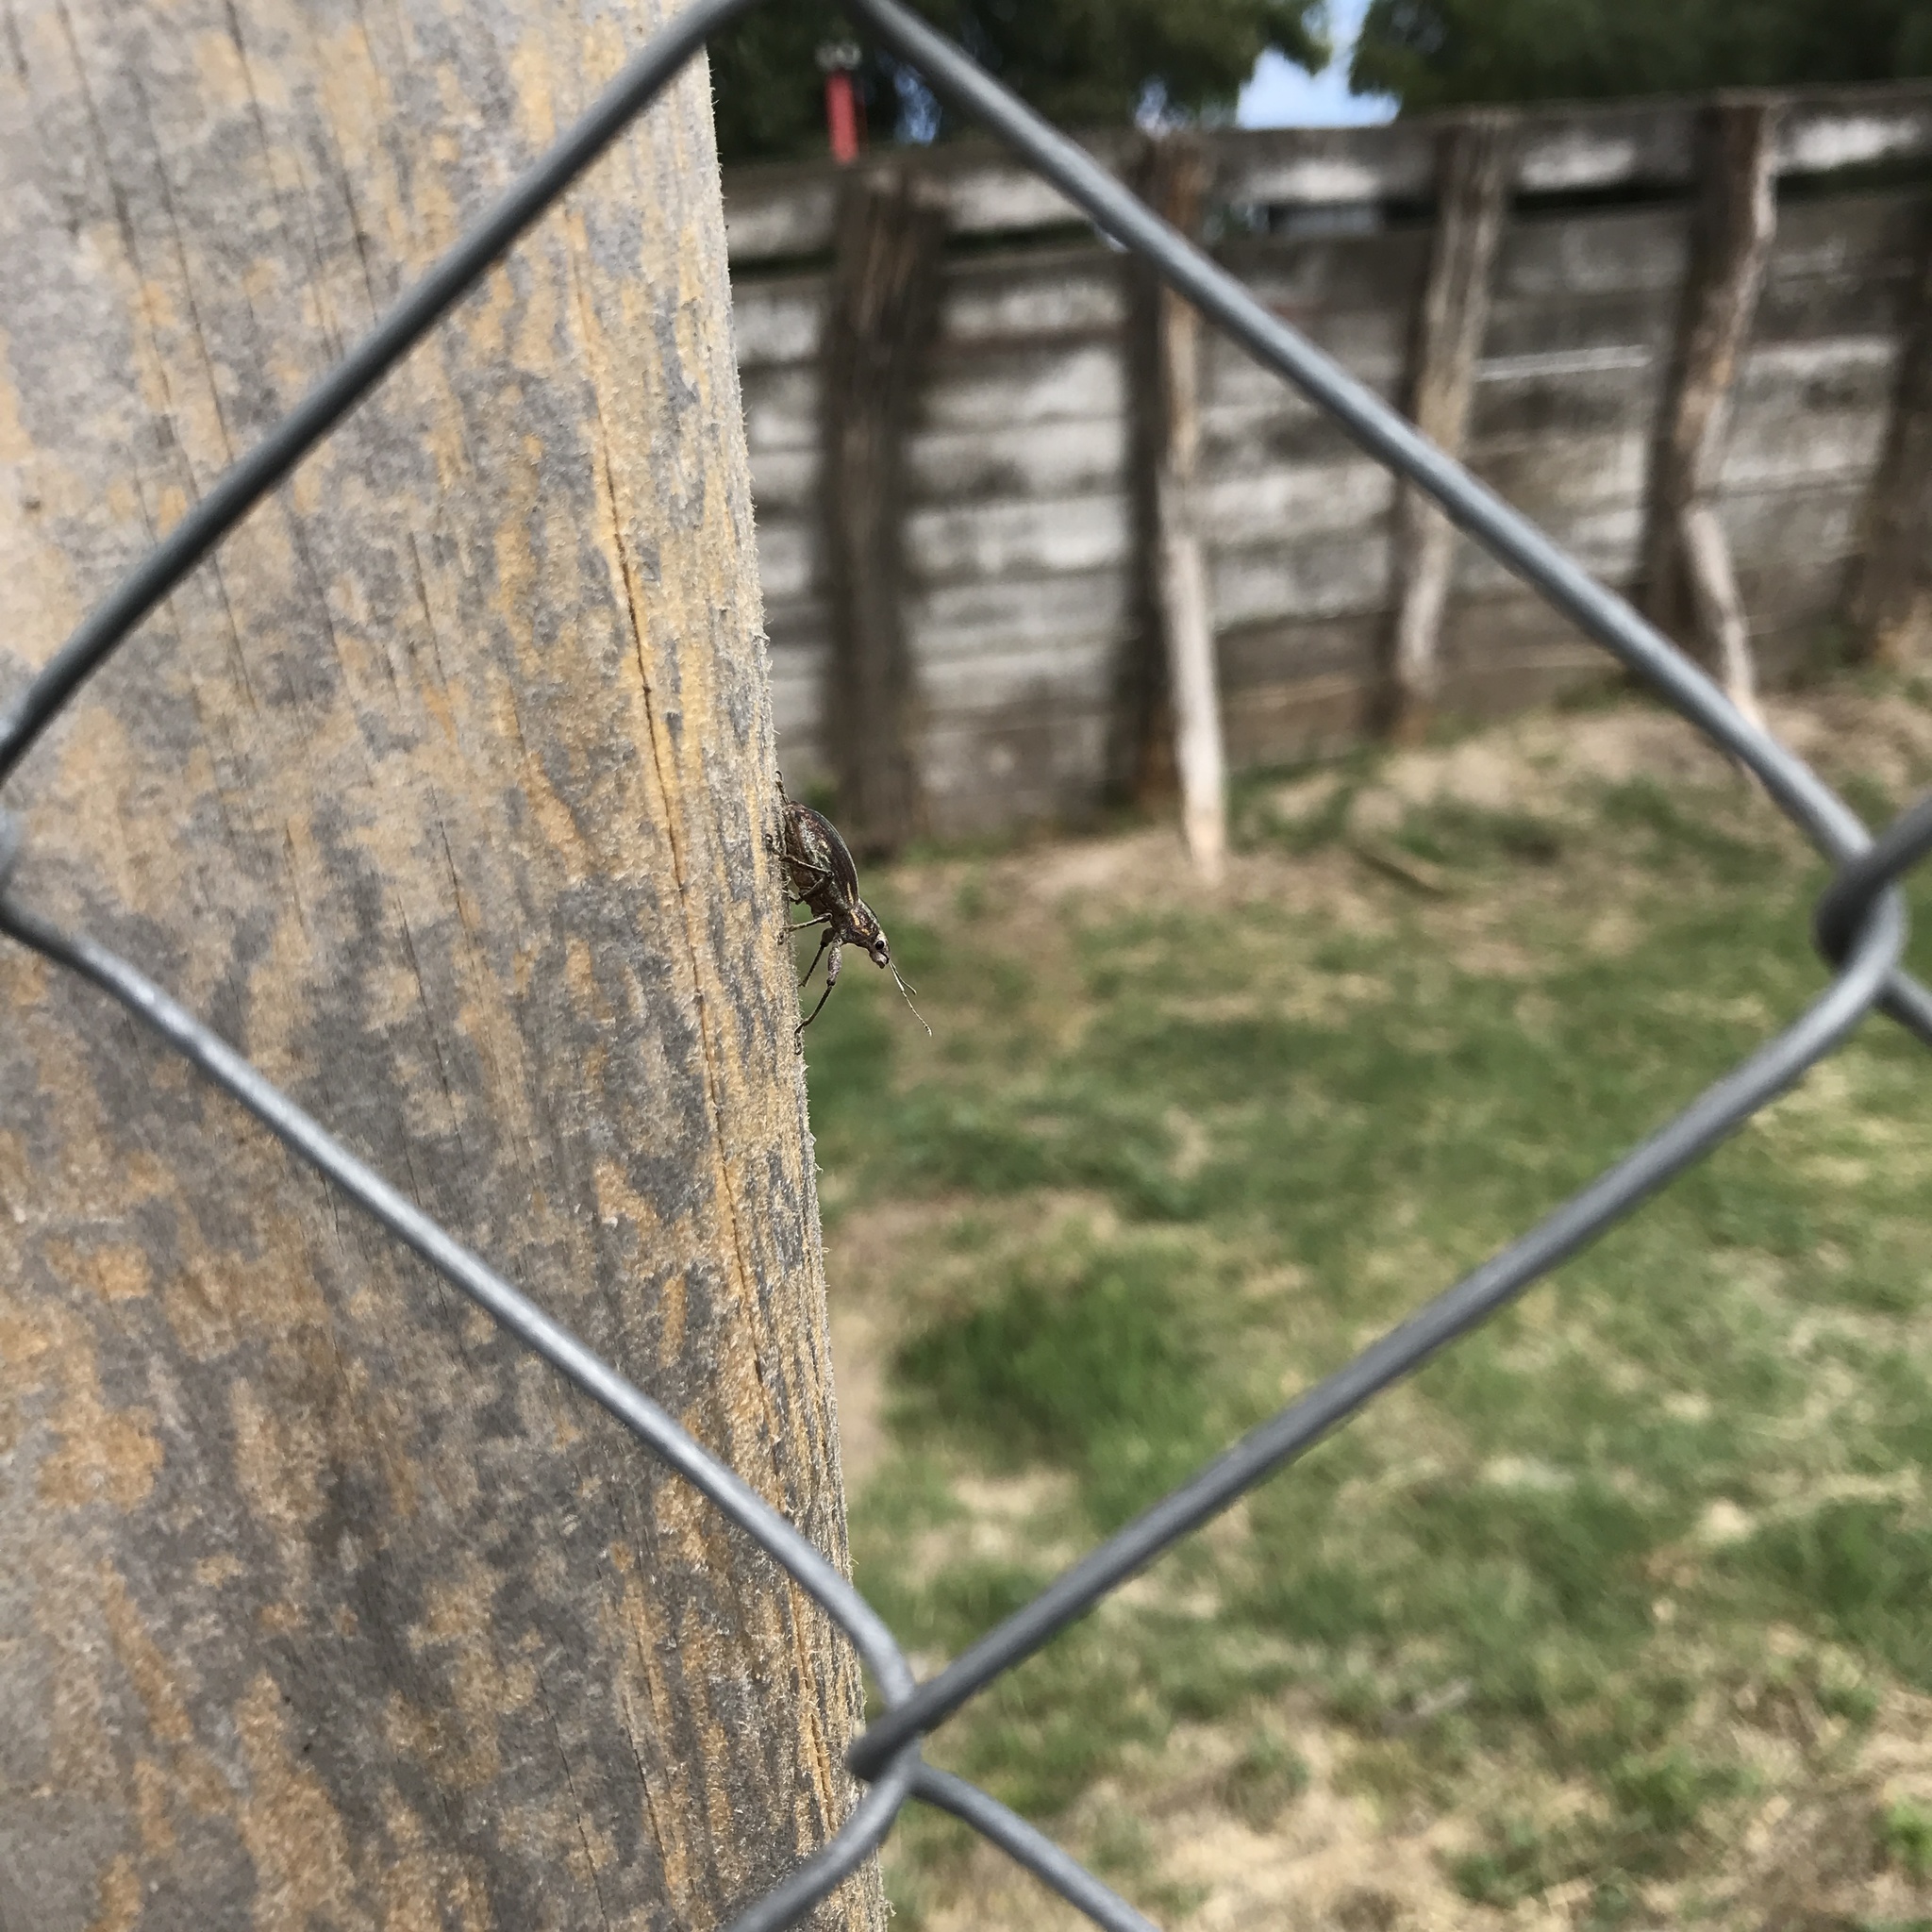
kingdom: Animalia
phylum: Arthropoda
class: Insecta
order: Coleoptera
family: Curculionidae
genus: Naupactus
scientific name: Naupactus xanthographus
